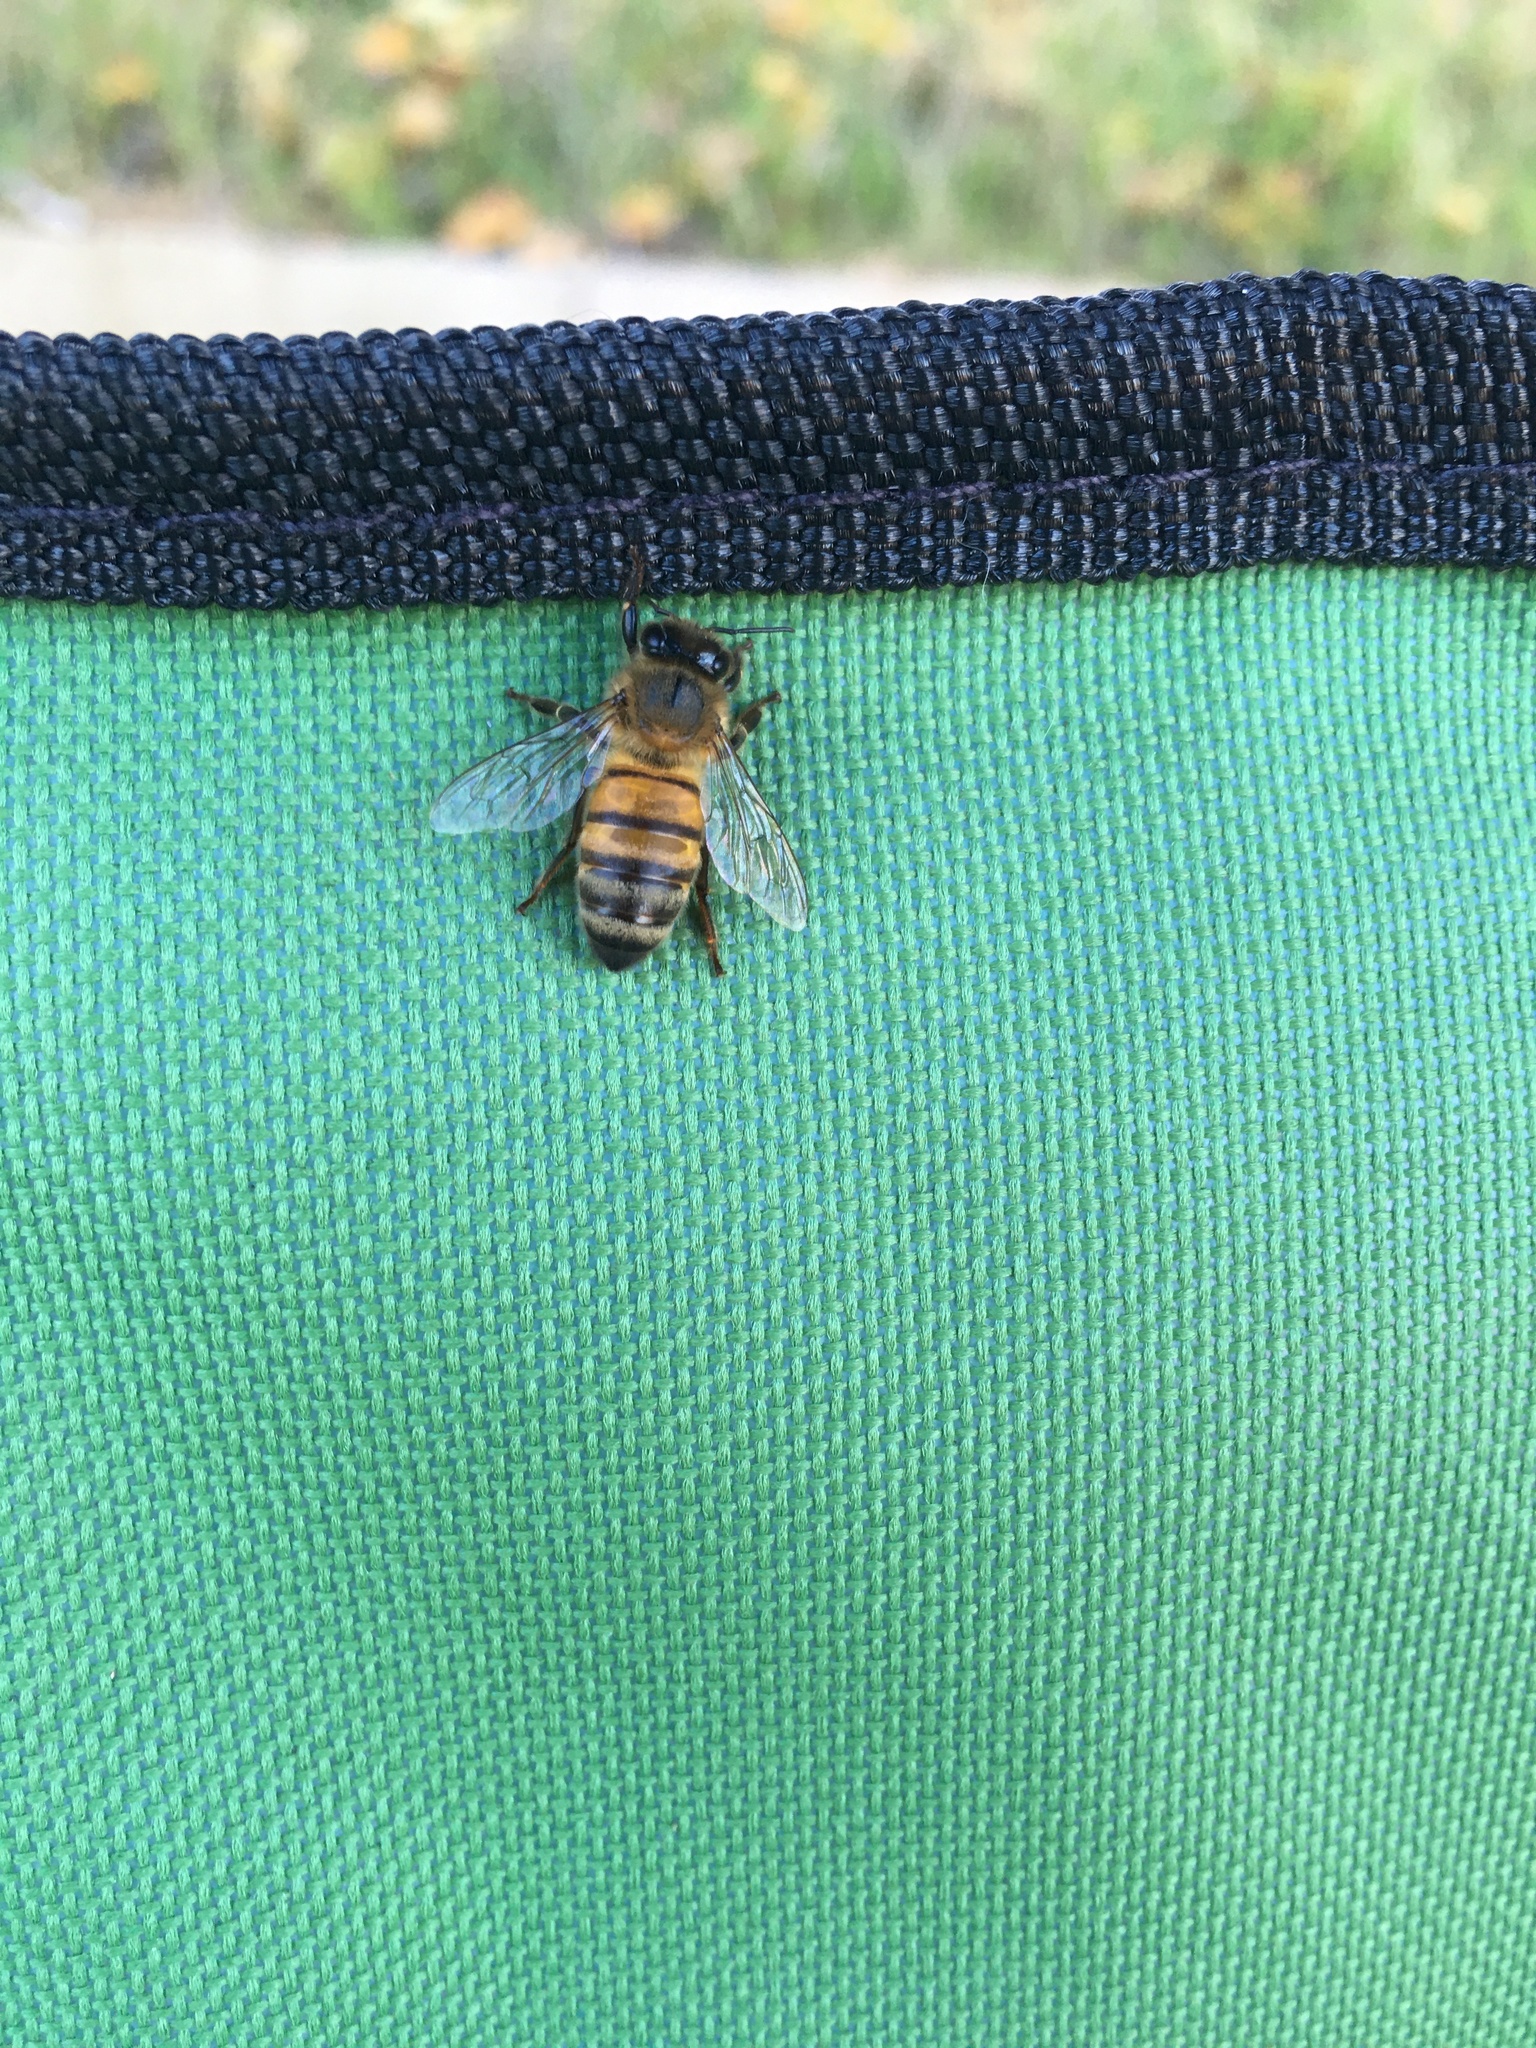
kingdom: Animalia
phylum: Arthropoda
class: Insecta
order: Hymenoptera
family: Apidae
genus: Apis
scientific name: Apis mellifera
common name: Honey bee
